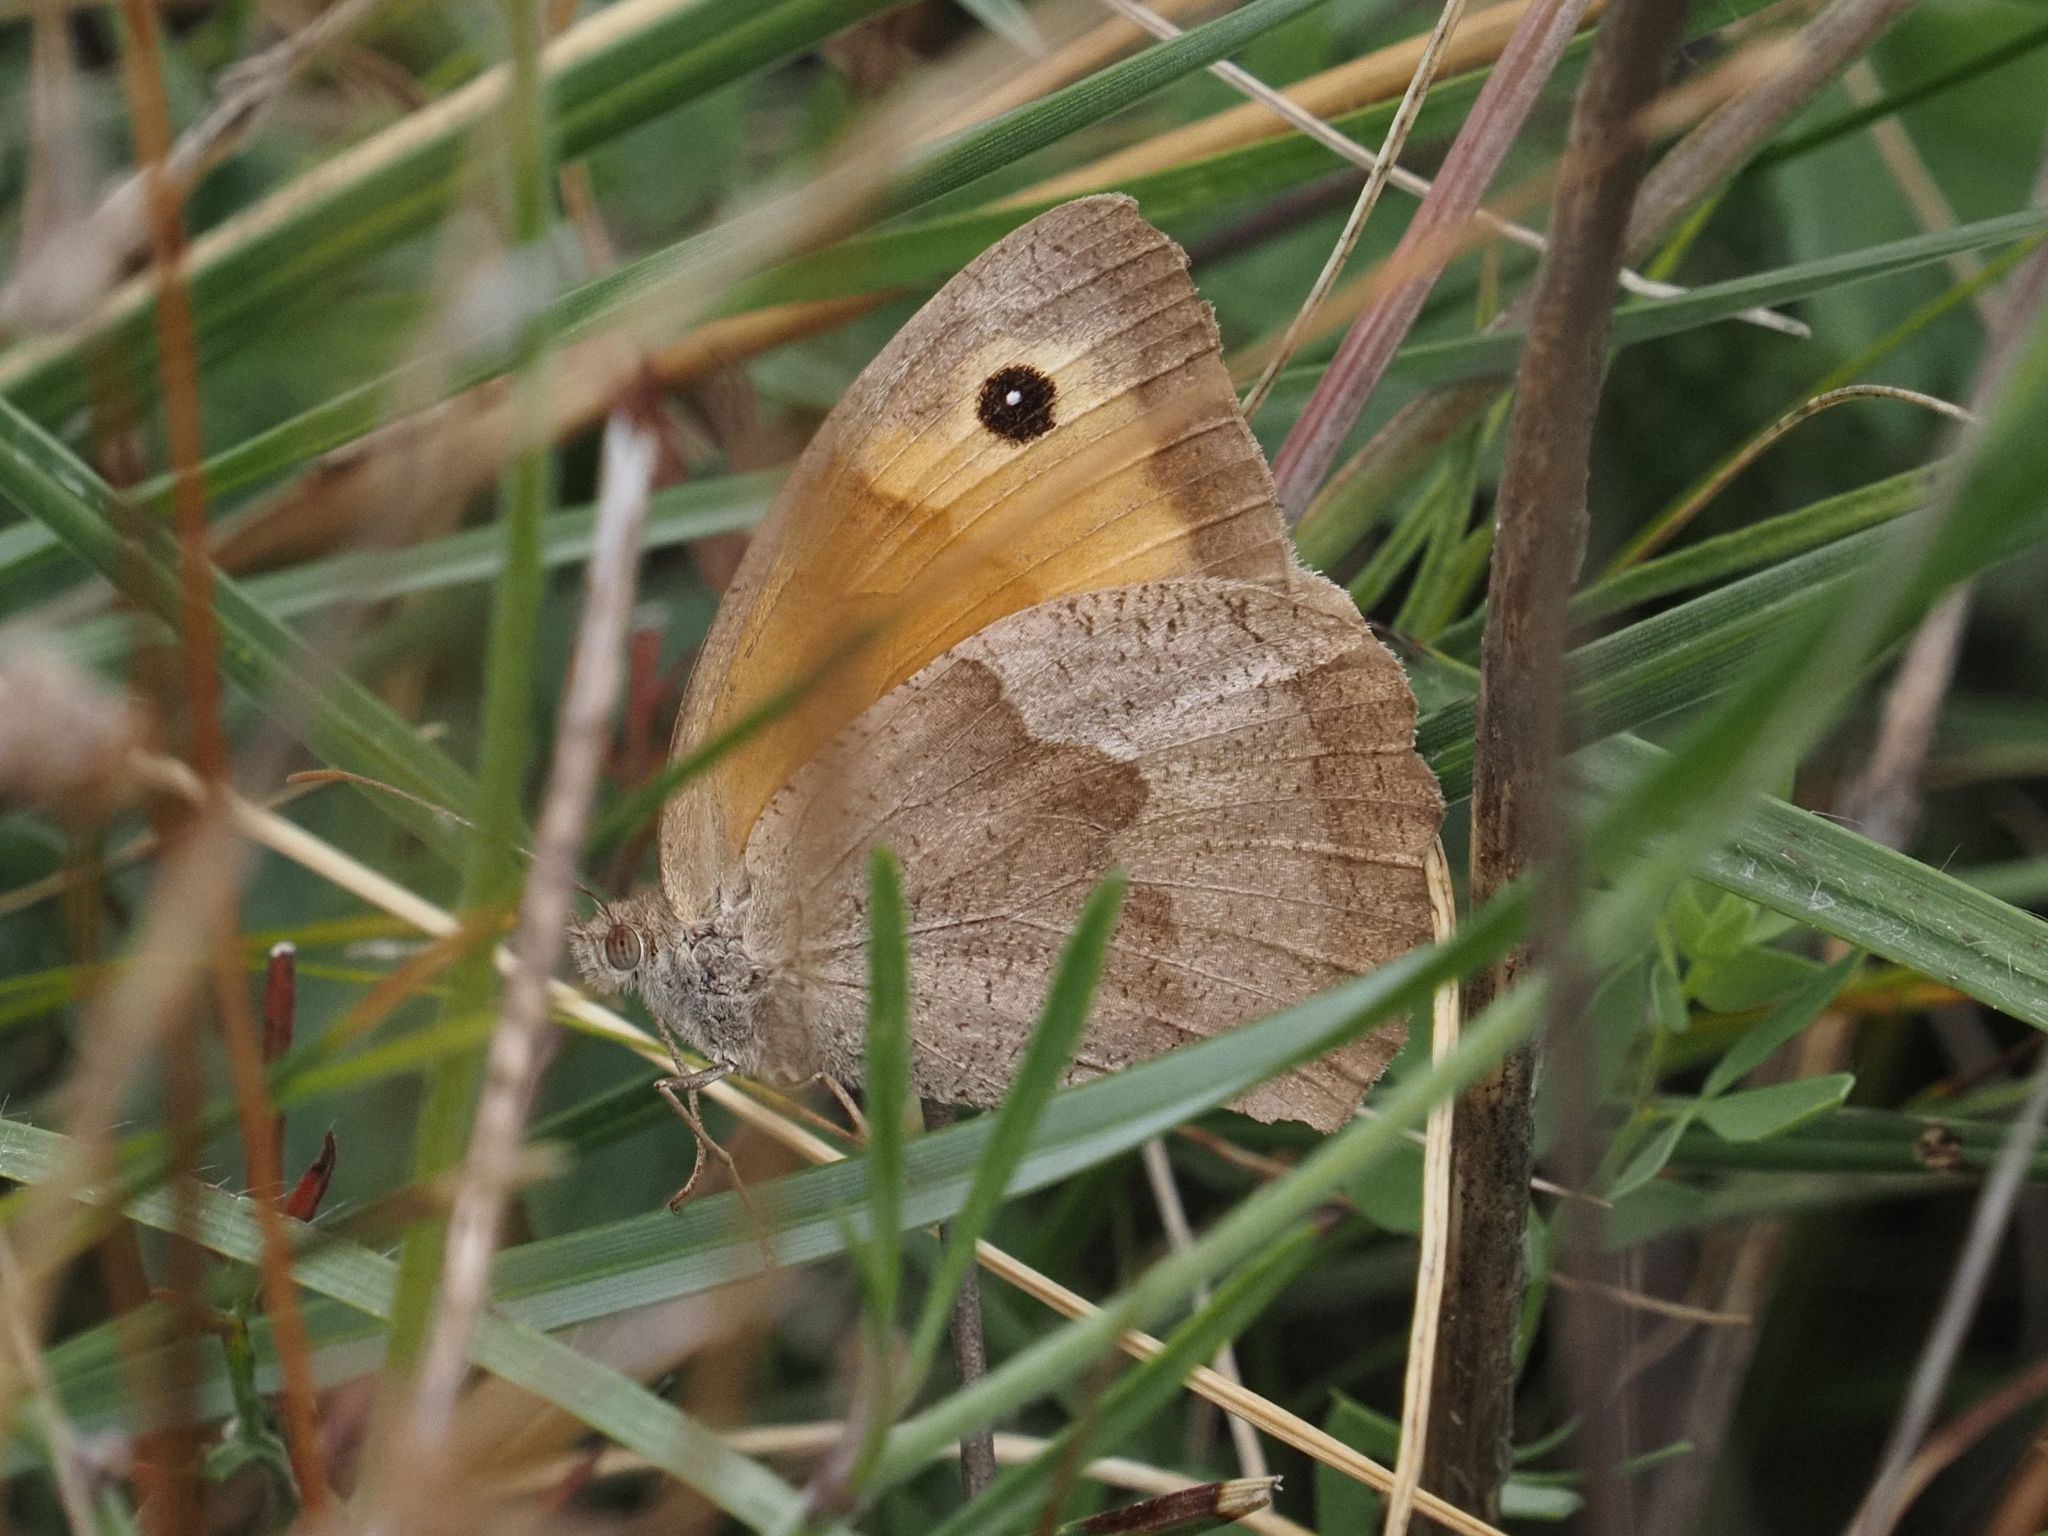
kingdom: Animalia
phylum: Arthropoda
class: Insecta
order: Lepidoptera
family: Nymphalidae
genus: Maniola
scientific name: Maniola jurtina
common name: Meadow brown
